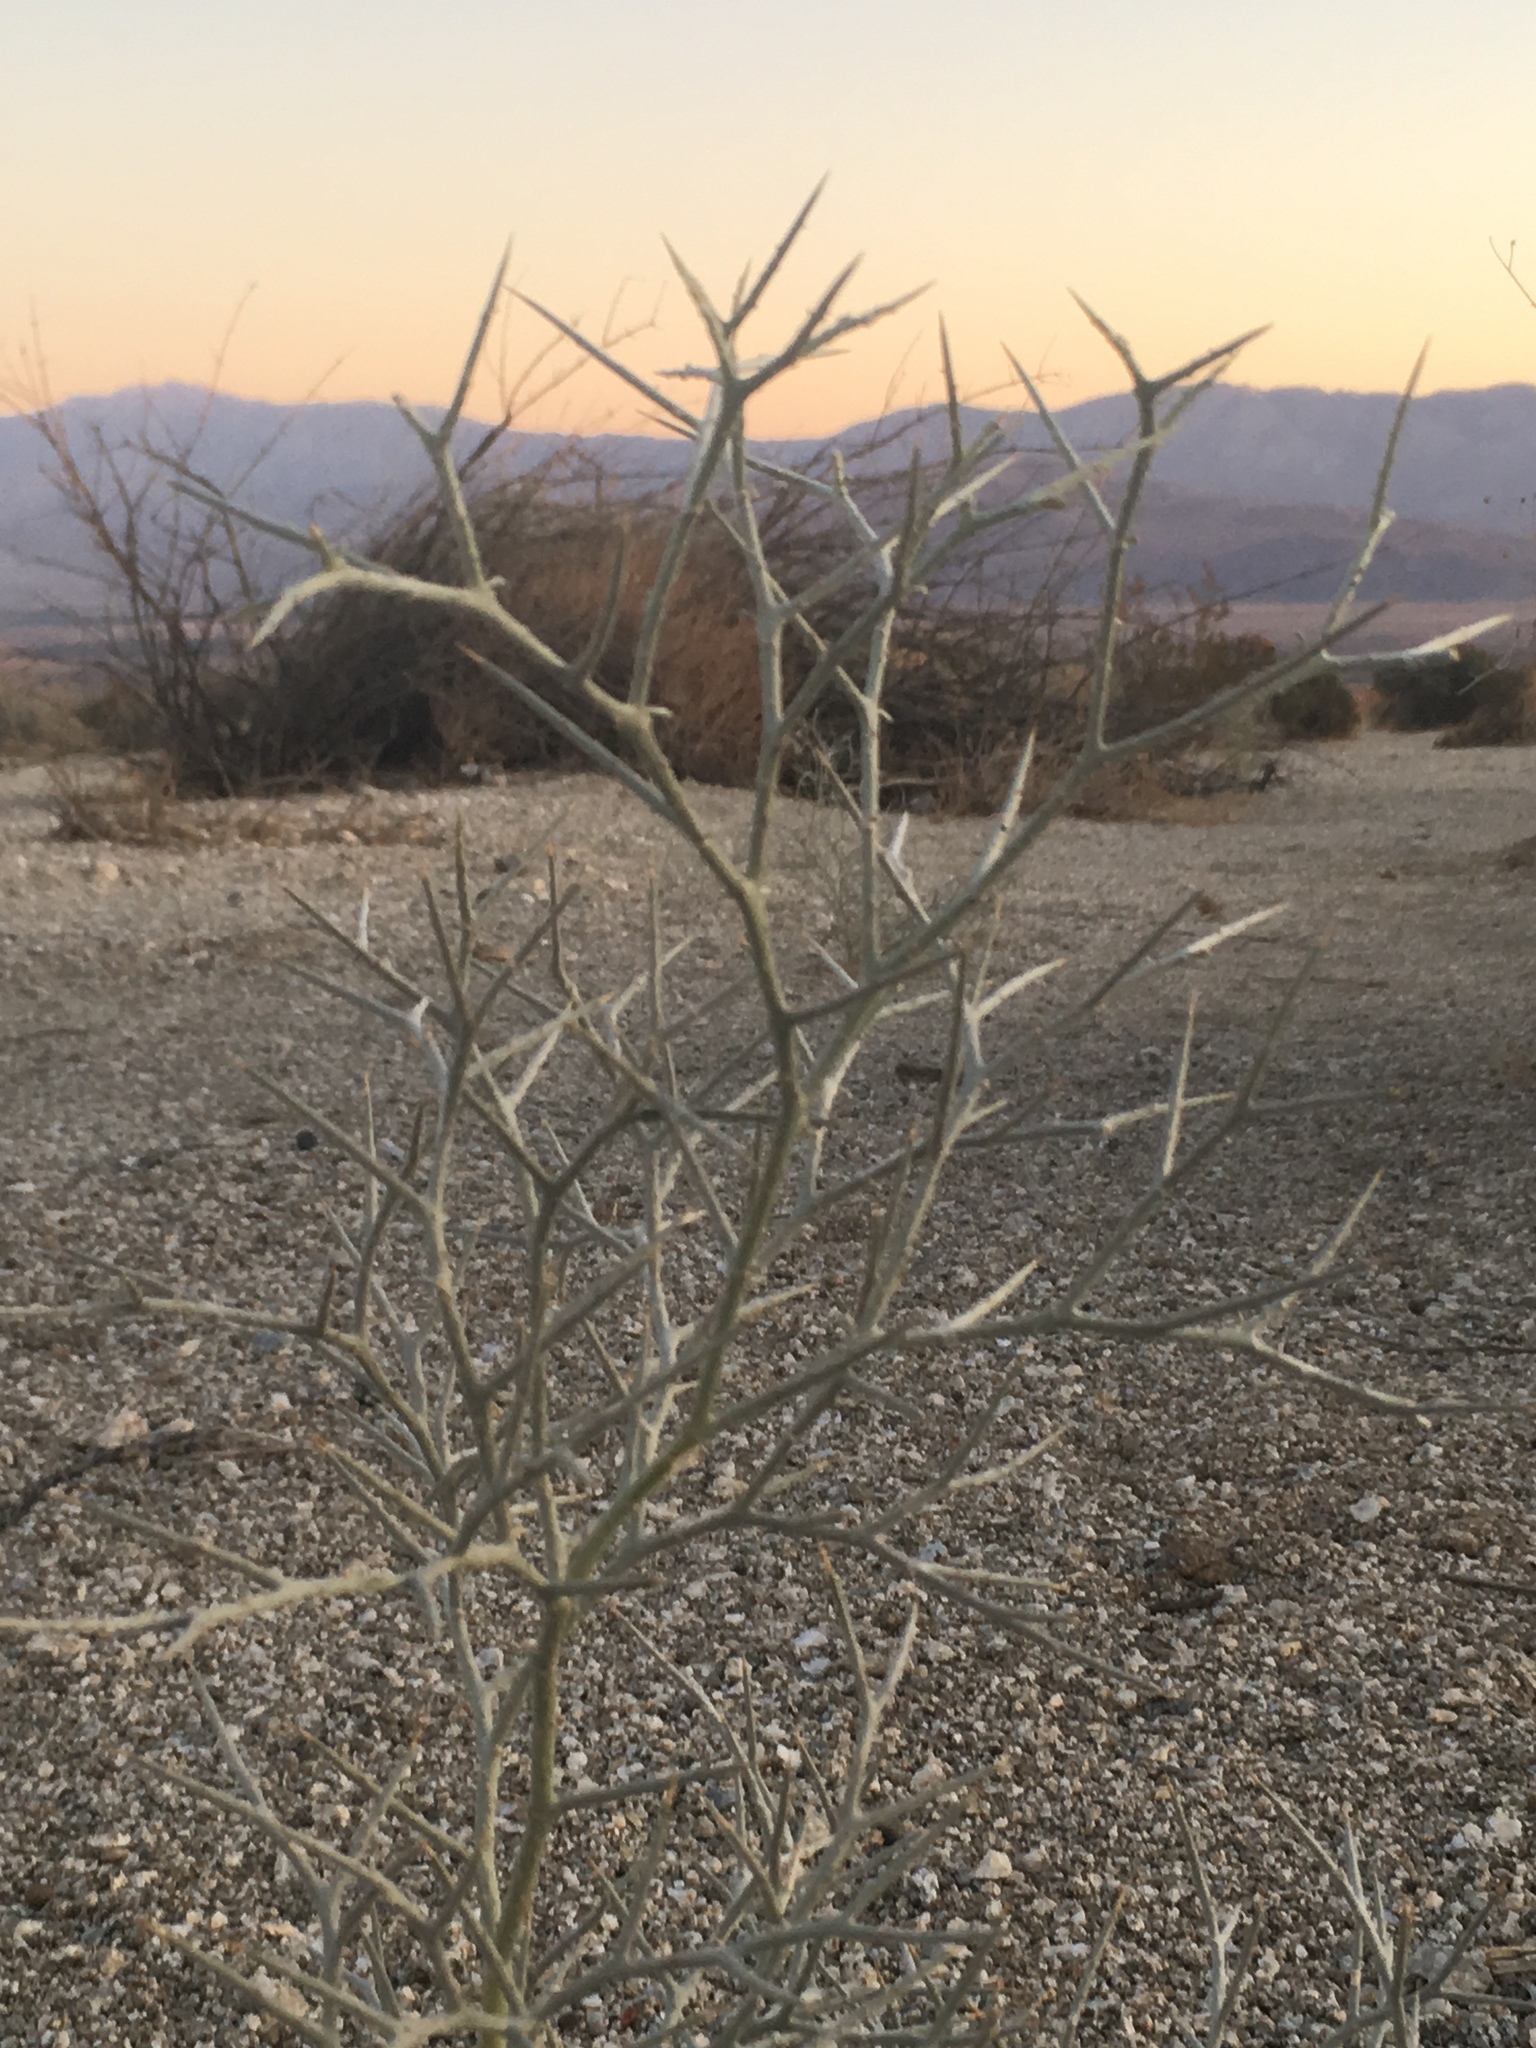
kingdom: Plantae
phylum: Tracheophyta
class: Magnoliopsida
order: Fabales
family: Fabaceae
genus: Psorothamnus
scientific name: Psorothamnus spinosus
